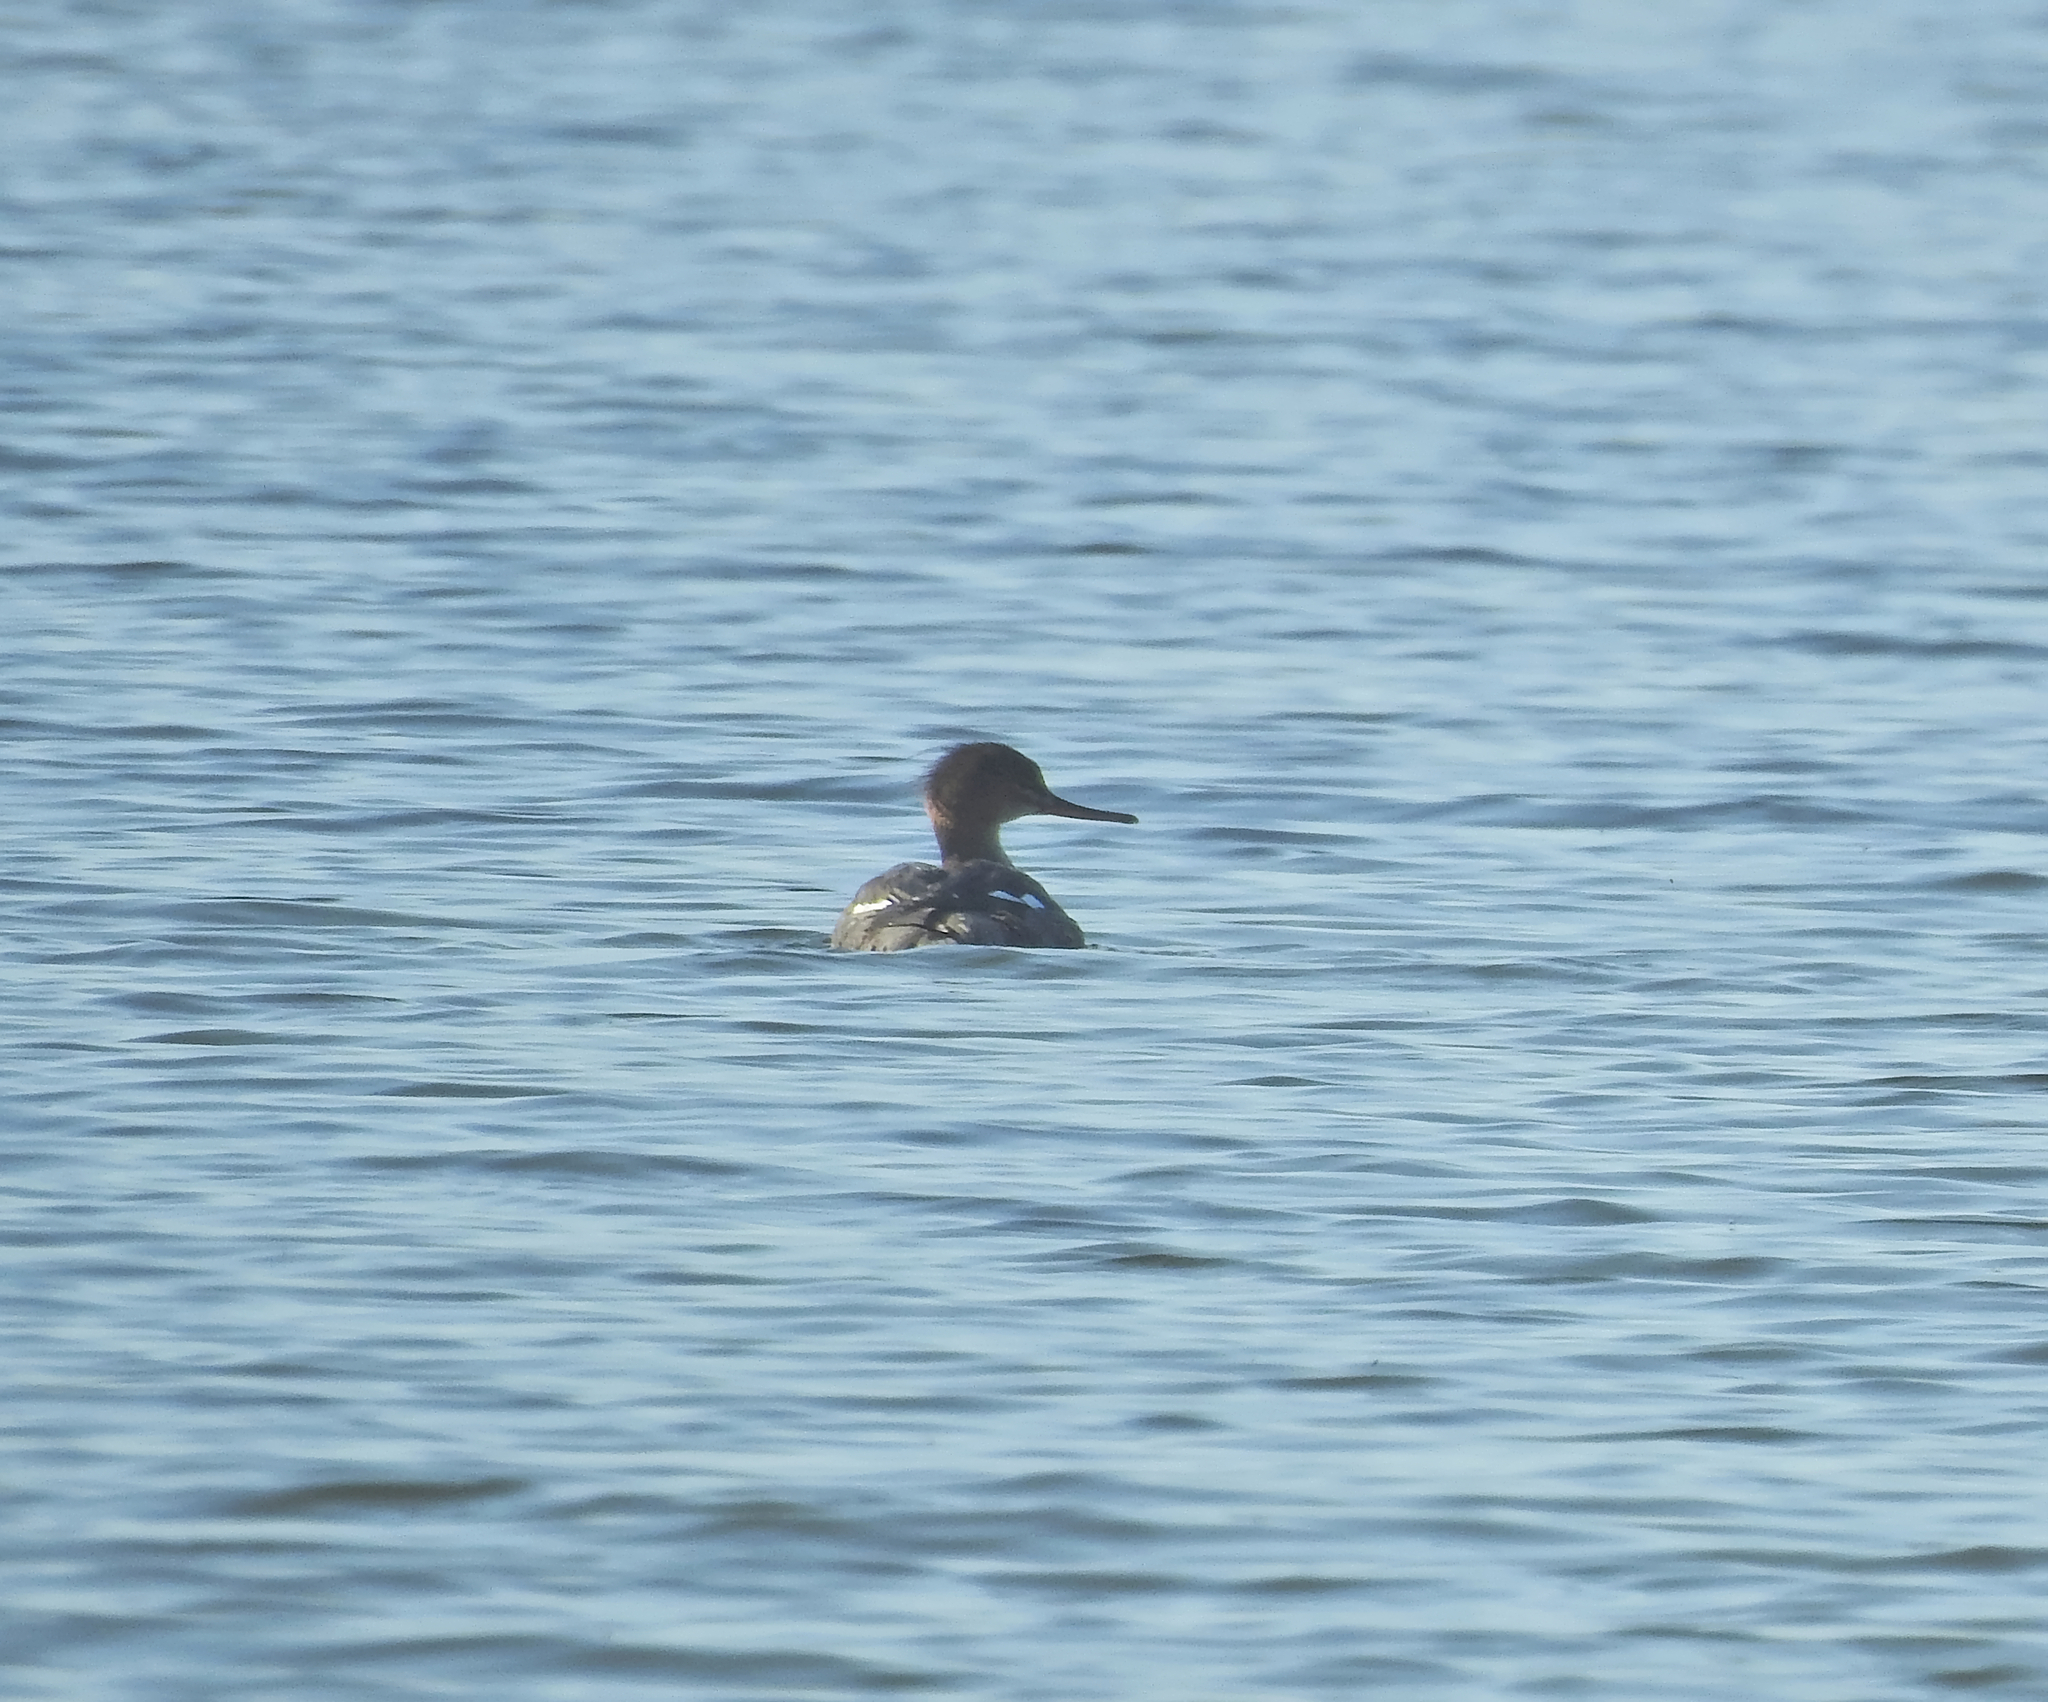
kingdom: Animalia
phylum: Chordata
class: Aves
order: Anseriformes
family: Anatidae
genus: Mergus
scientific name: Mergus serrator
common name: Red-breasted merganser
